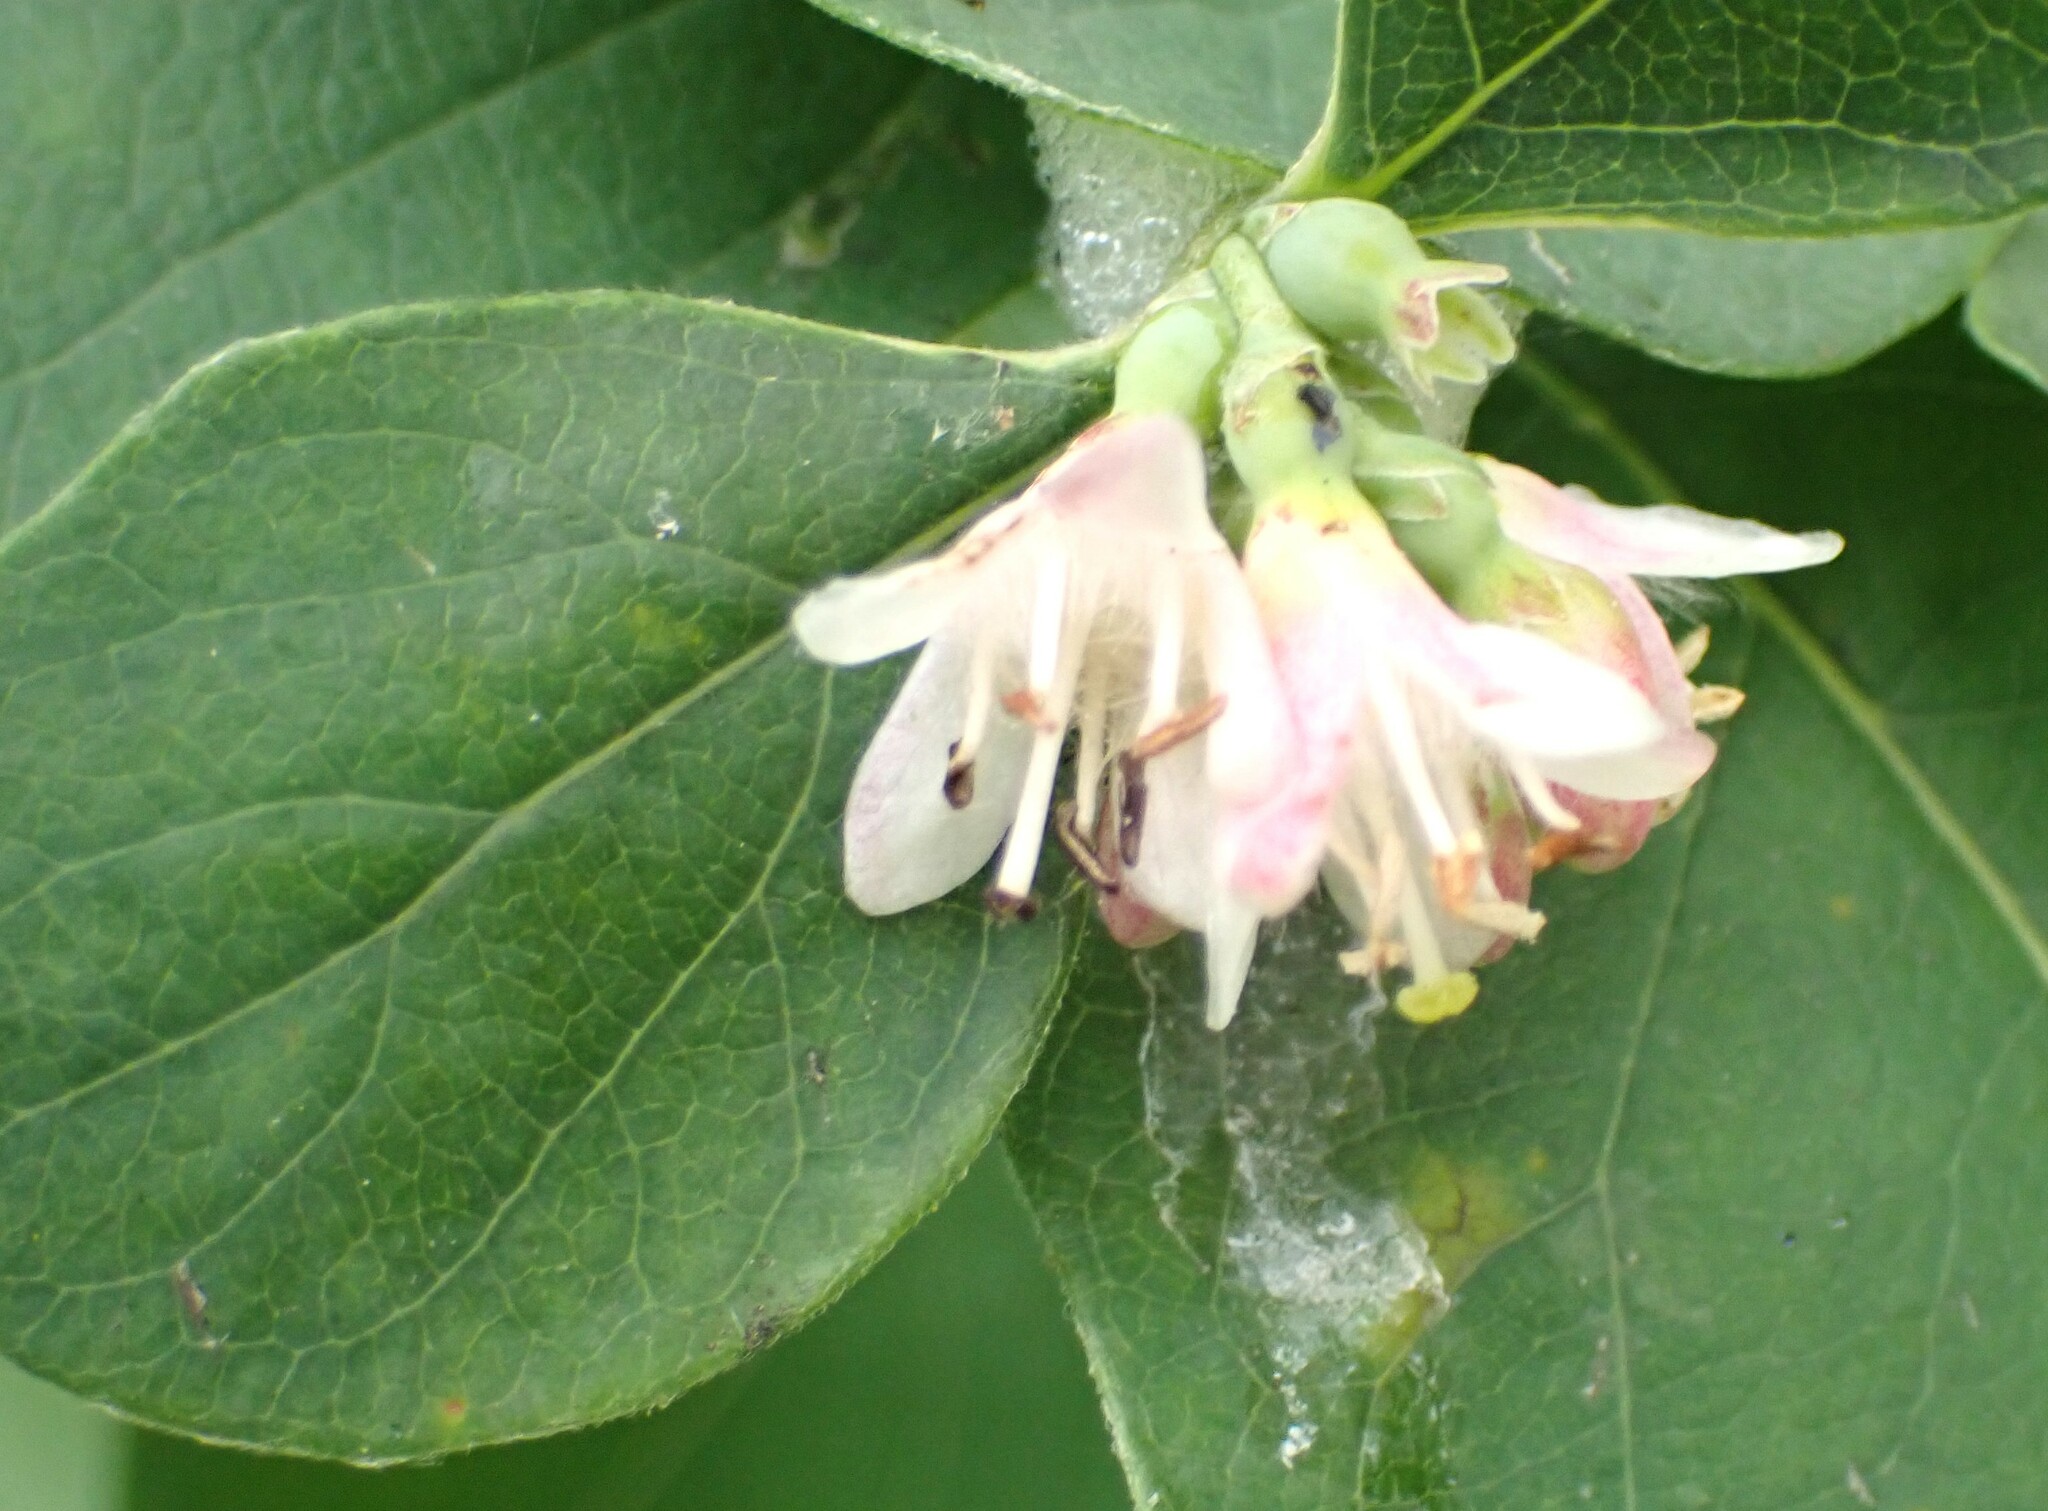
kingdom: Plantae
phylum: Tracheophyta
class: Magnoliopsida
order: Dipsacales
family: Caprifoliaceae
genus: Symphoricarpos
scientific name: Symphoricarpos occidentalis
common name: Wolfberry
